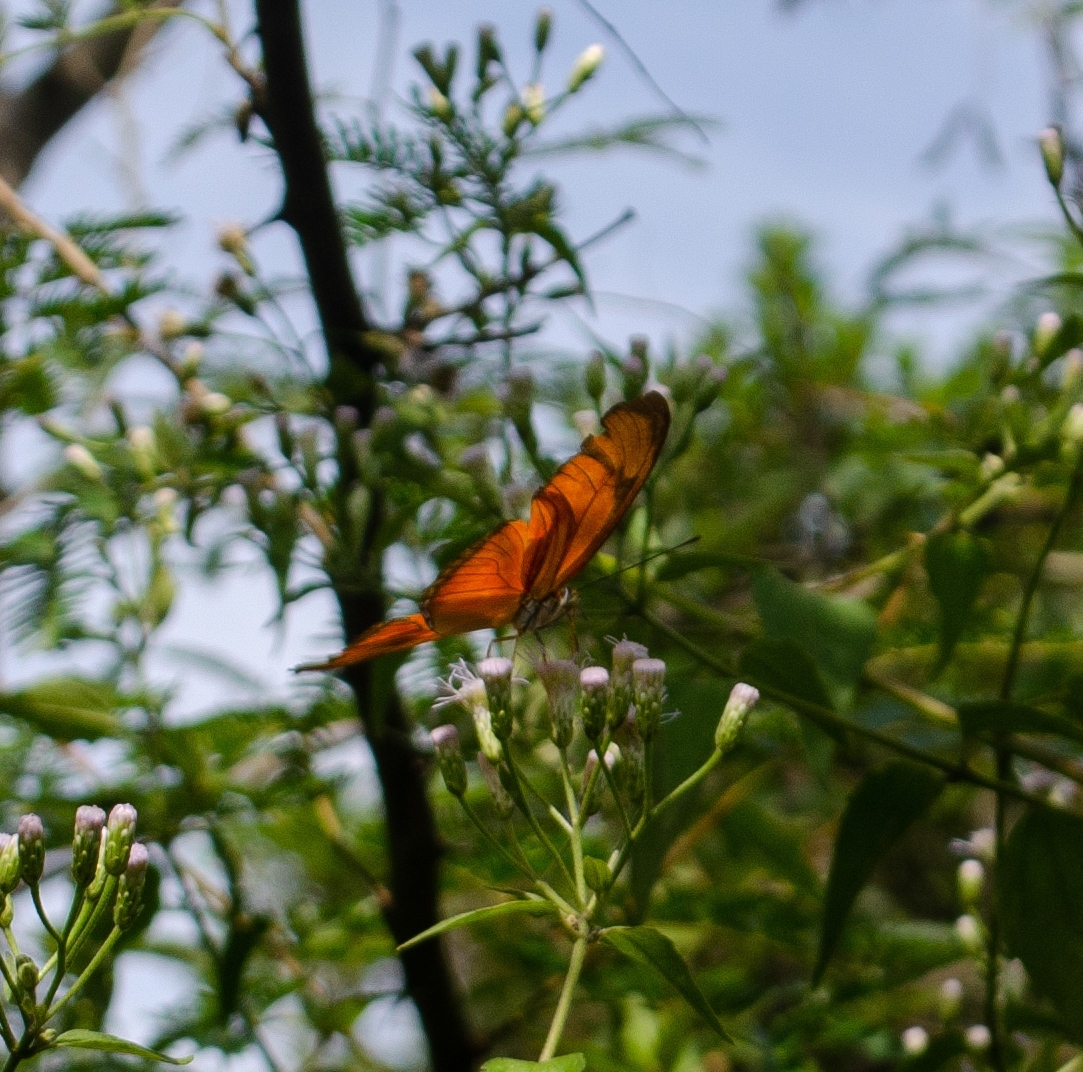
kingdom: Animalia
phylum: Arthropoda
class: Insecta
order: Lepidoptera
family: Nymphalidae
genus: Dryas
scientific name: Dryas iulia
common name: Flambeau
